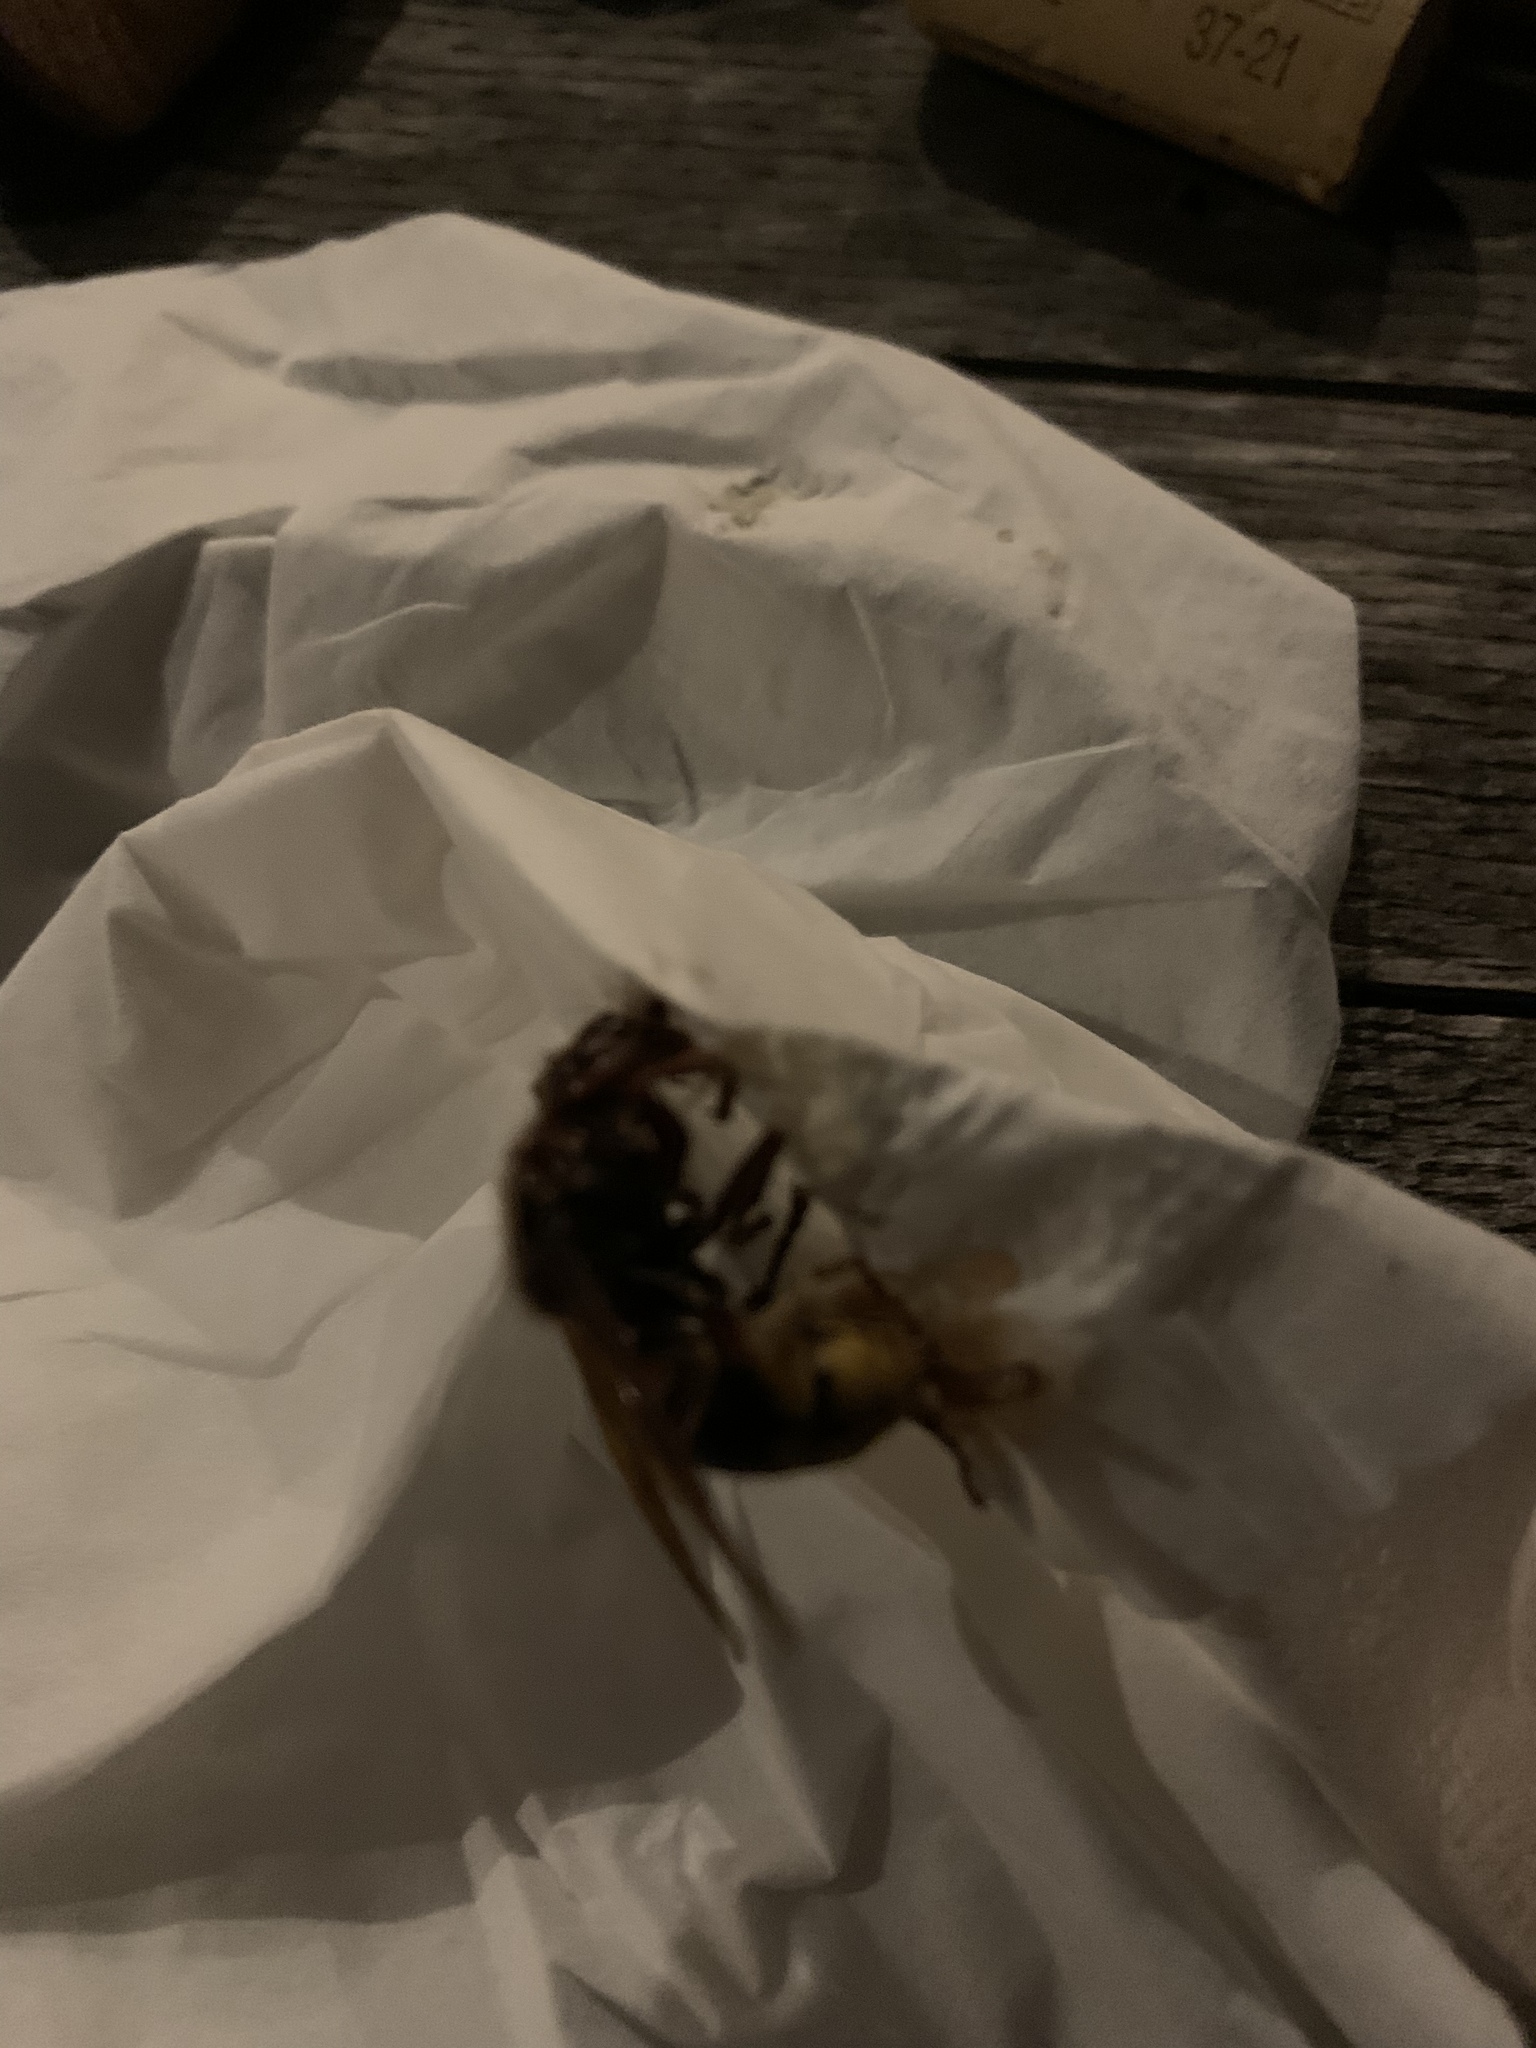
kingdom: Animalia
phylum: Arthropoda
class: Insecta
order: Hymenoptera
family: Vespidae
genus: Vespa
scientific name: Vespa crabro
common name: Hornet
